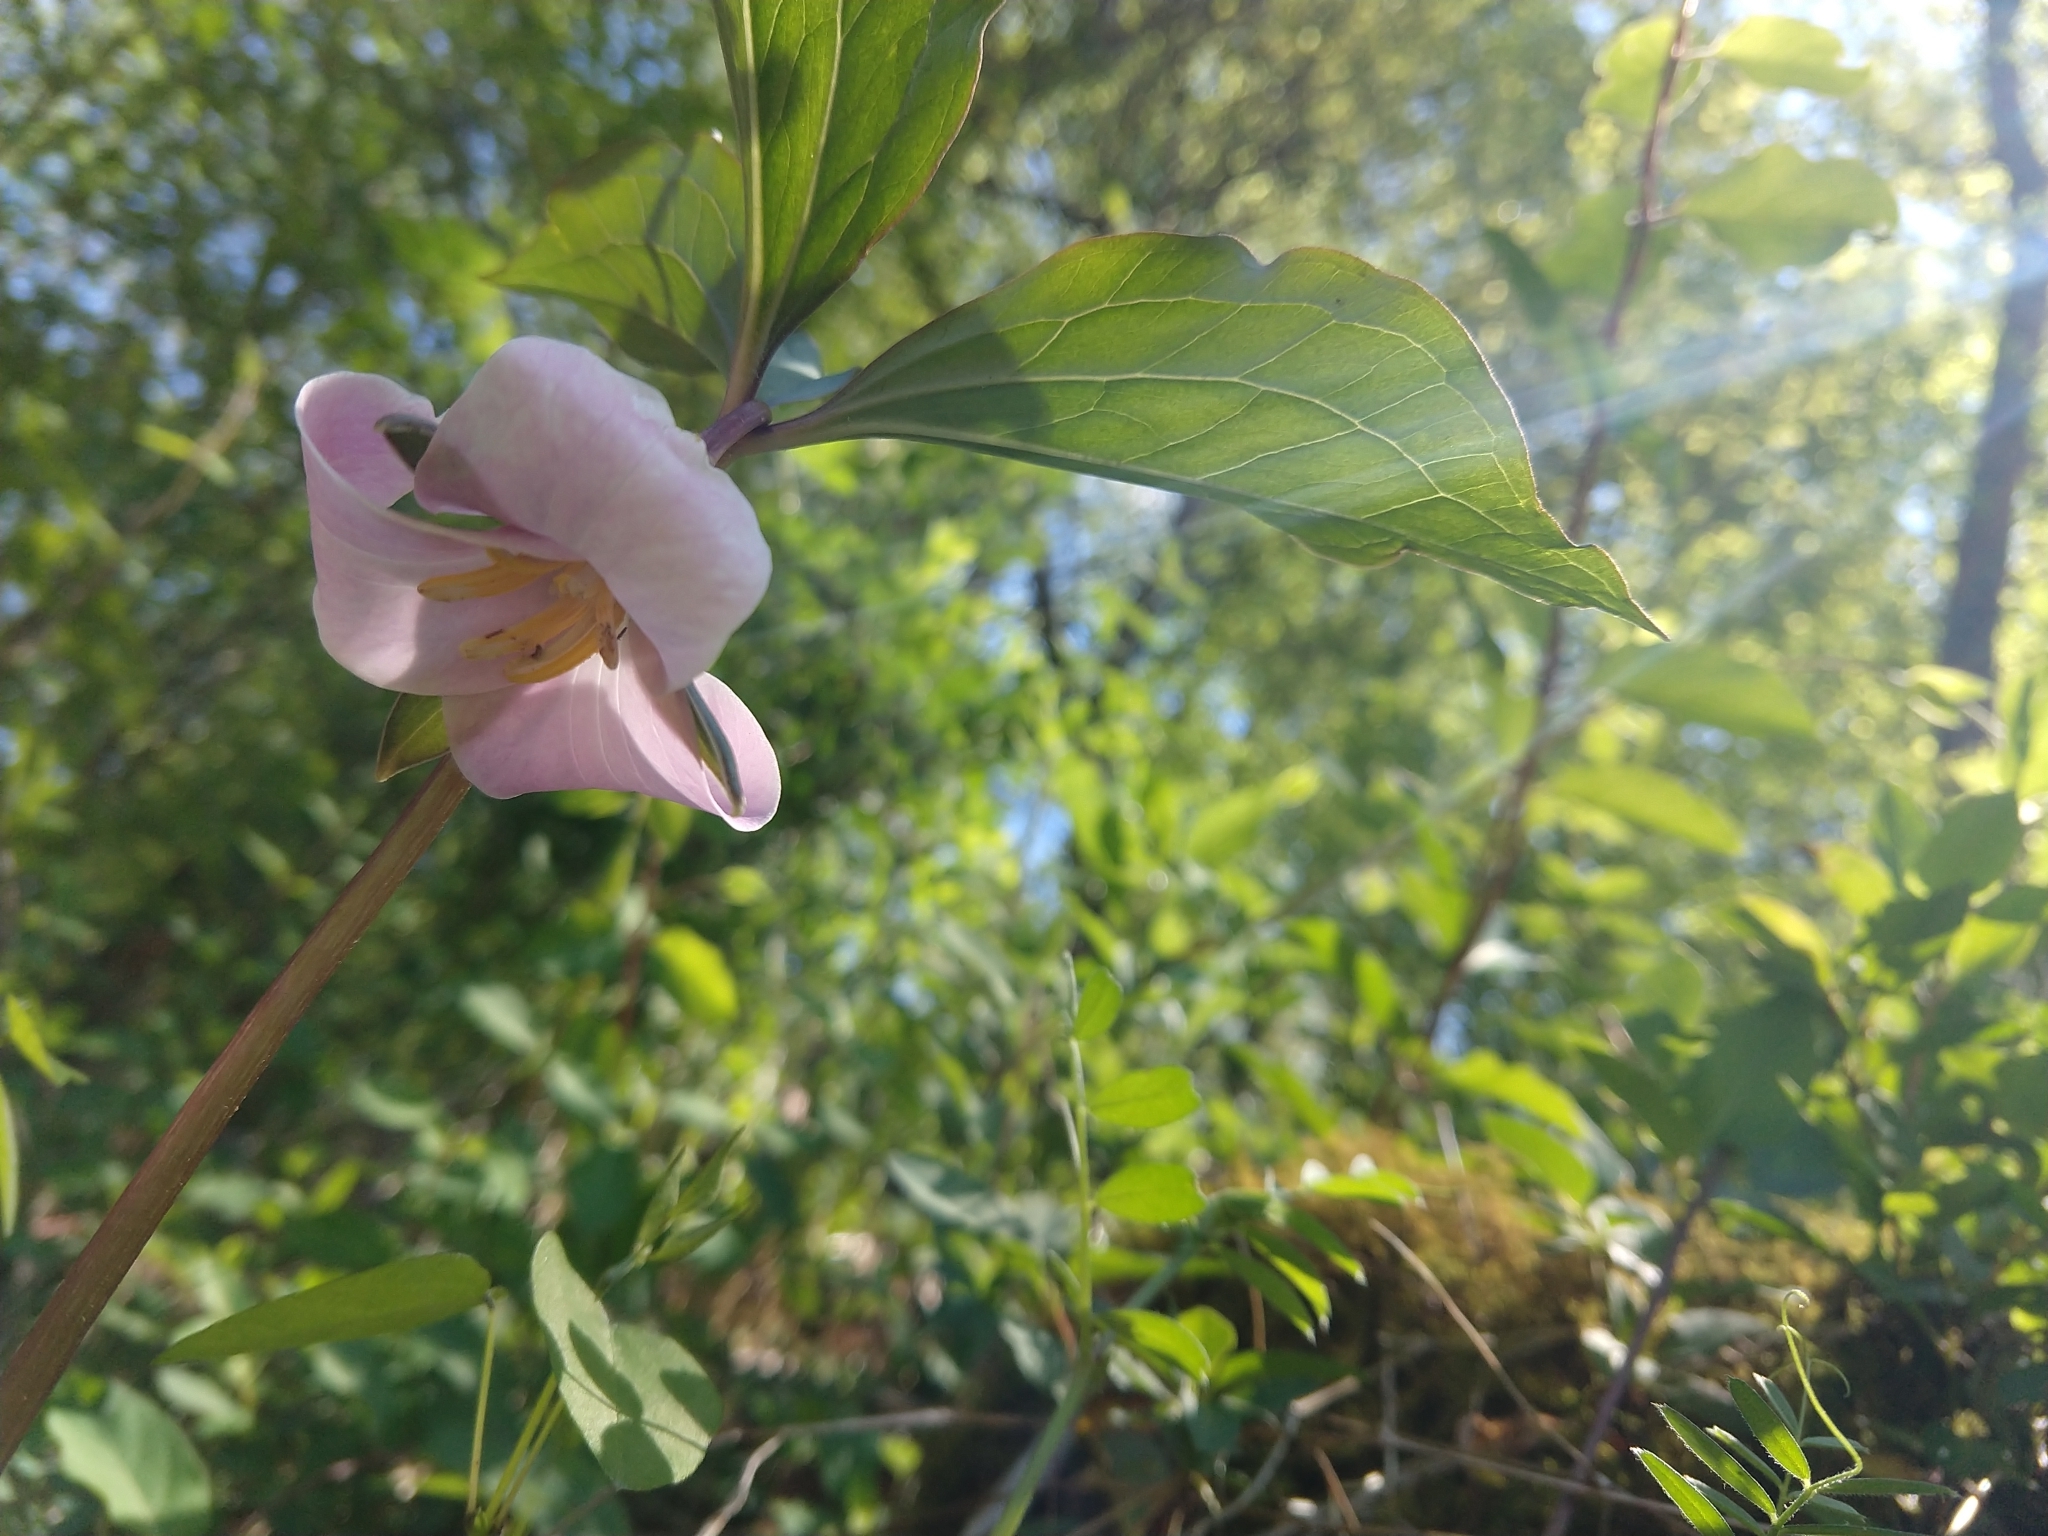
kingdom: Plantae
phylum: Tracheophyta
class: Liliopsida
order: Liliales
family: Melanthiaceae
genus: Trillium
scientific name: Trillium catesbaei
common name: Bashful trillium
